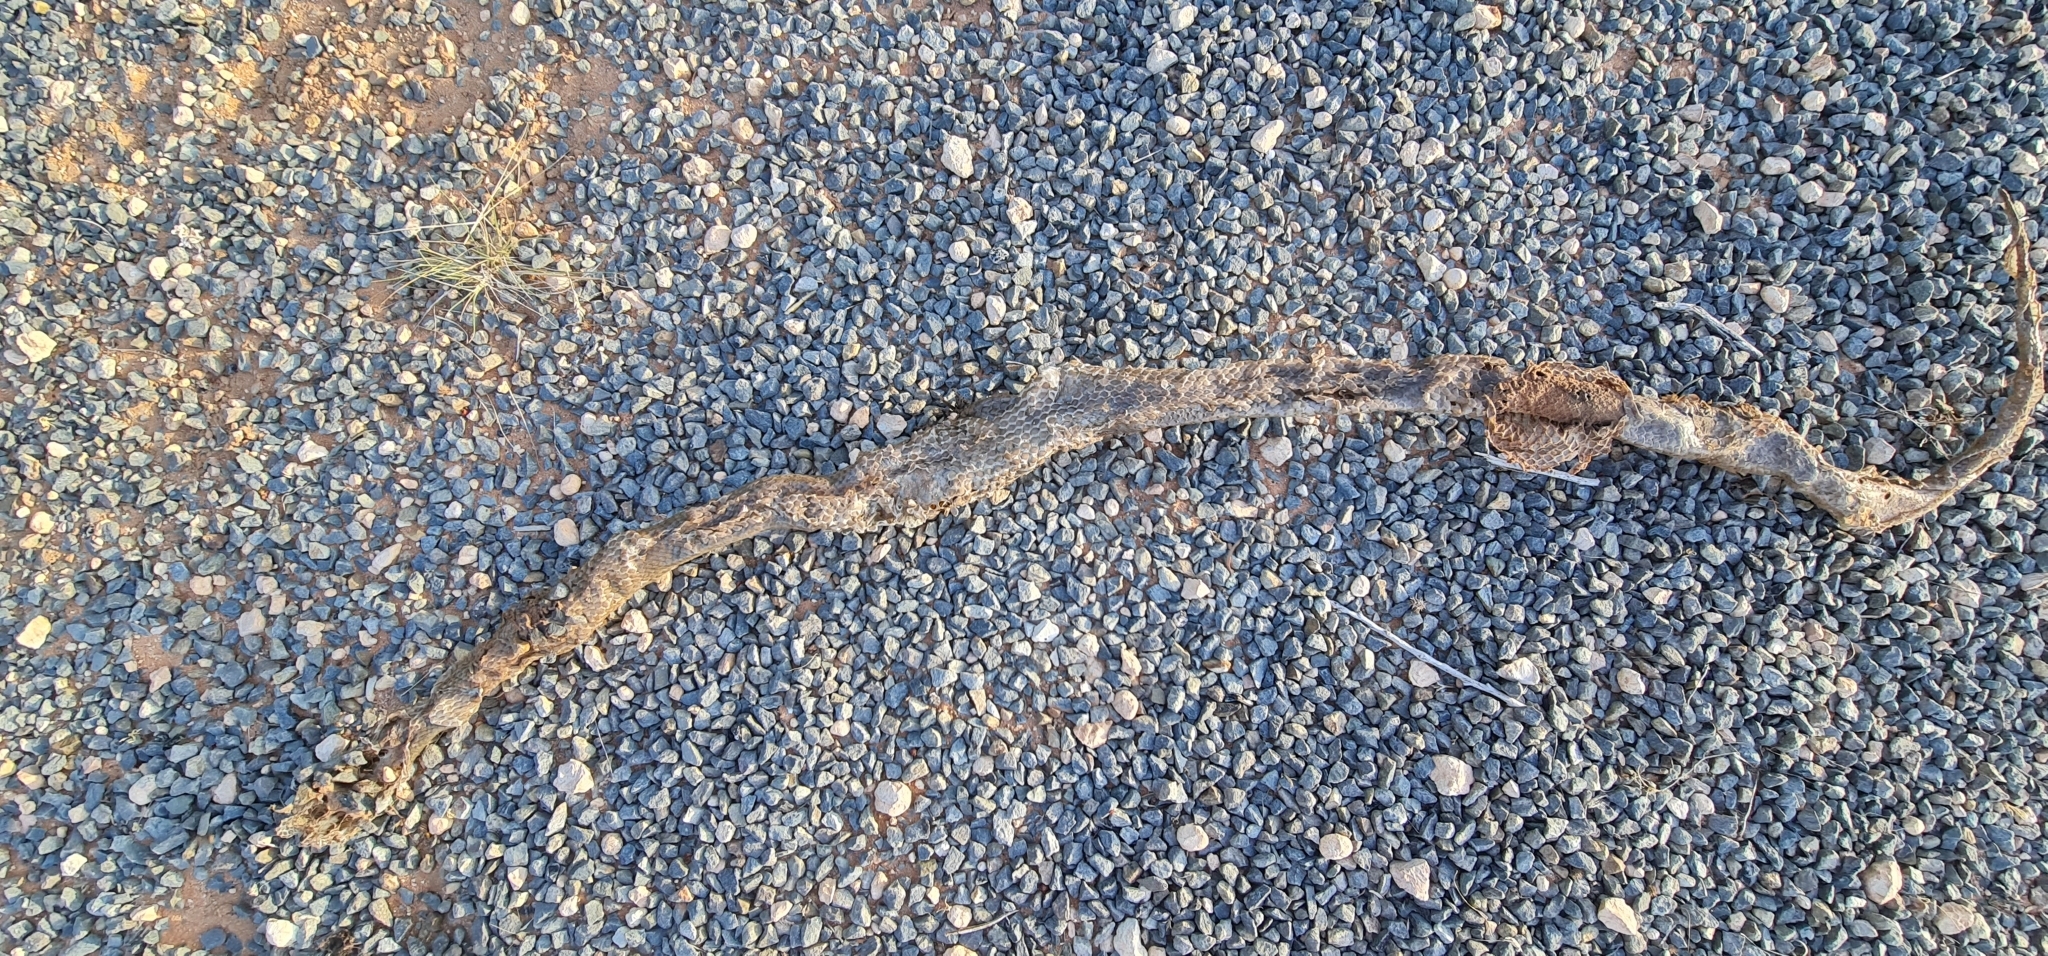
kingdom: Animalia
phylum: Chordata
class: Squamata
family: Elapidae
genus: Pseudonaja
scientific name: Pseudonaja textilis
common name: Eastern brown snake
